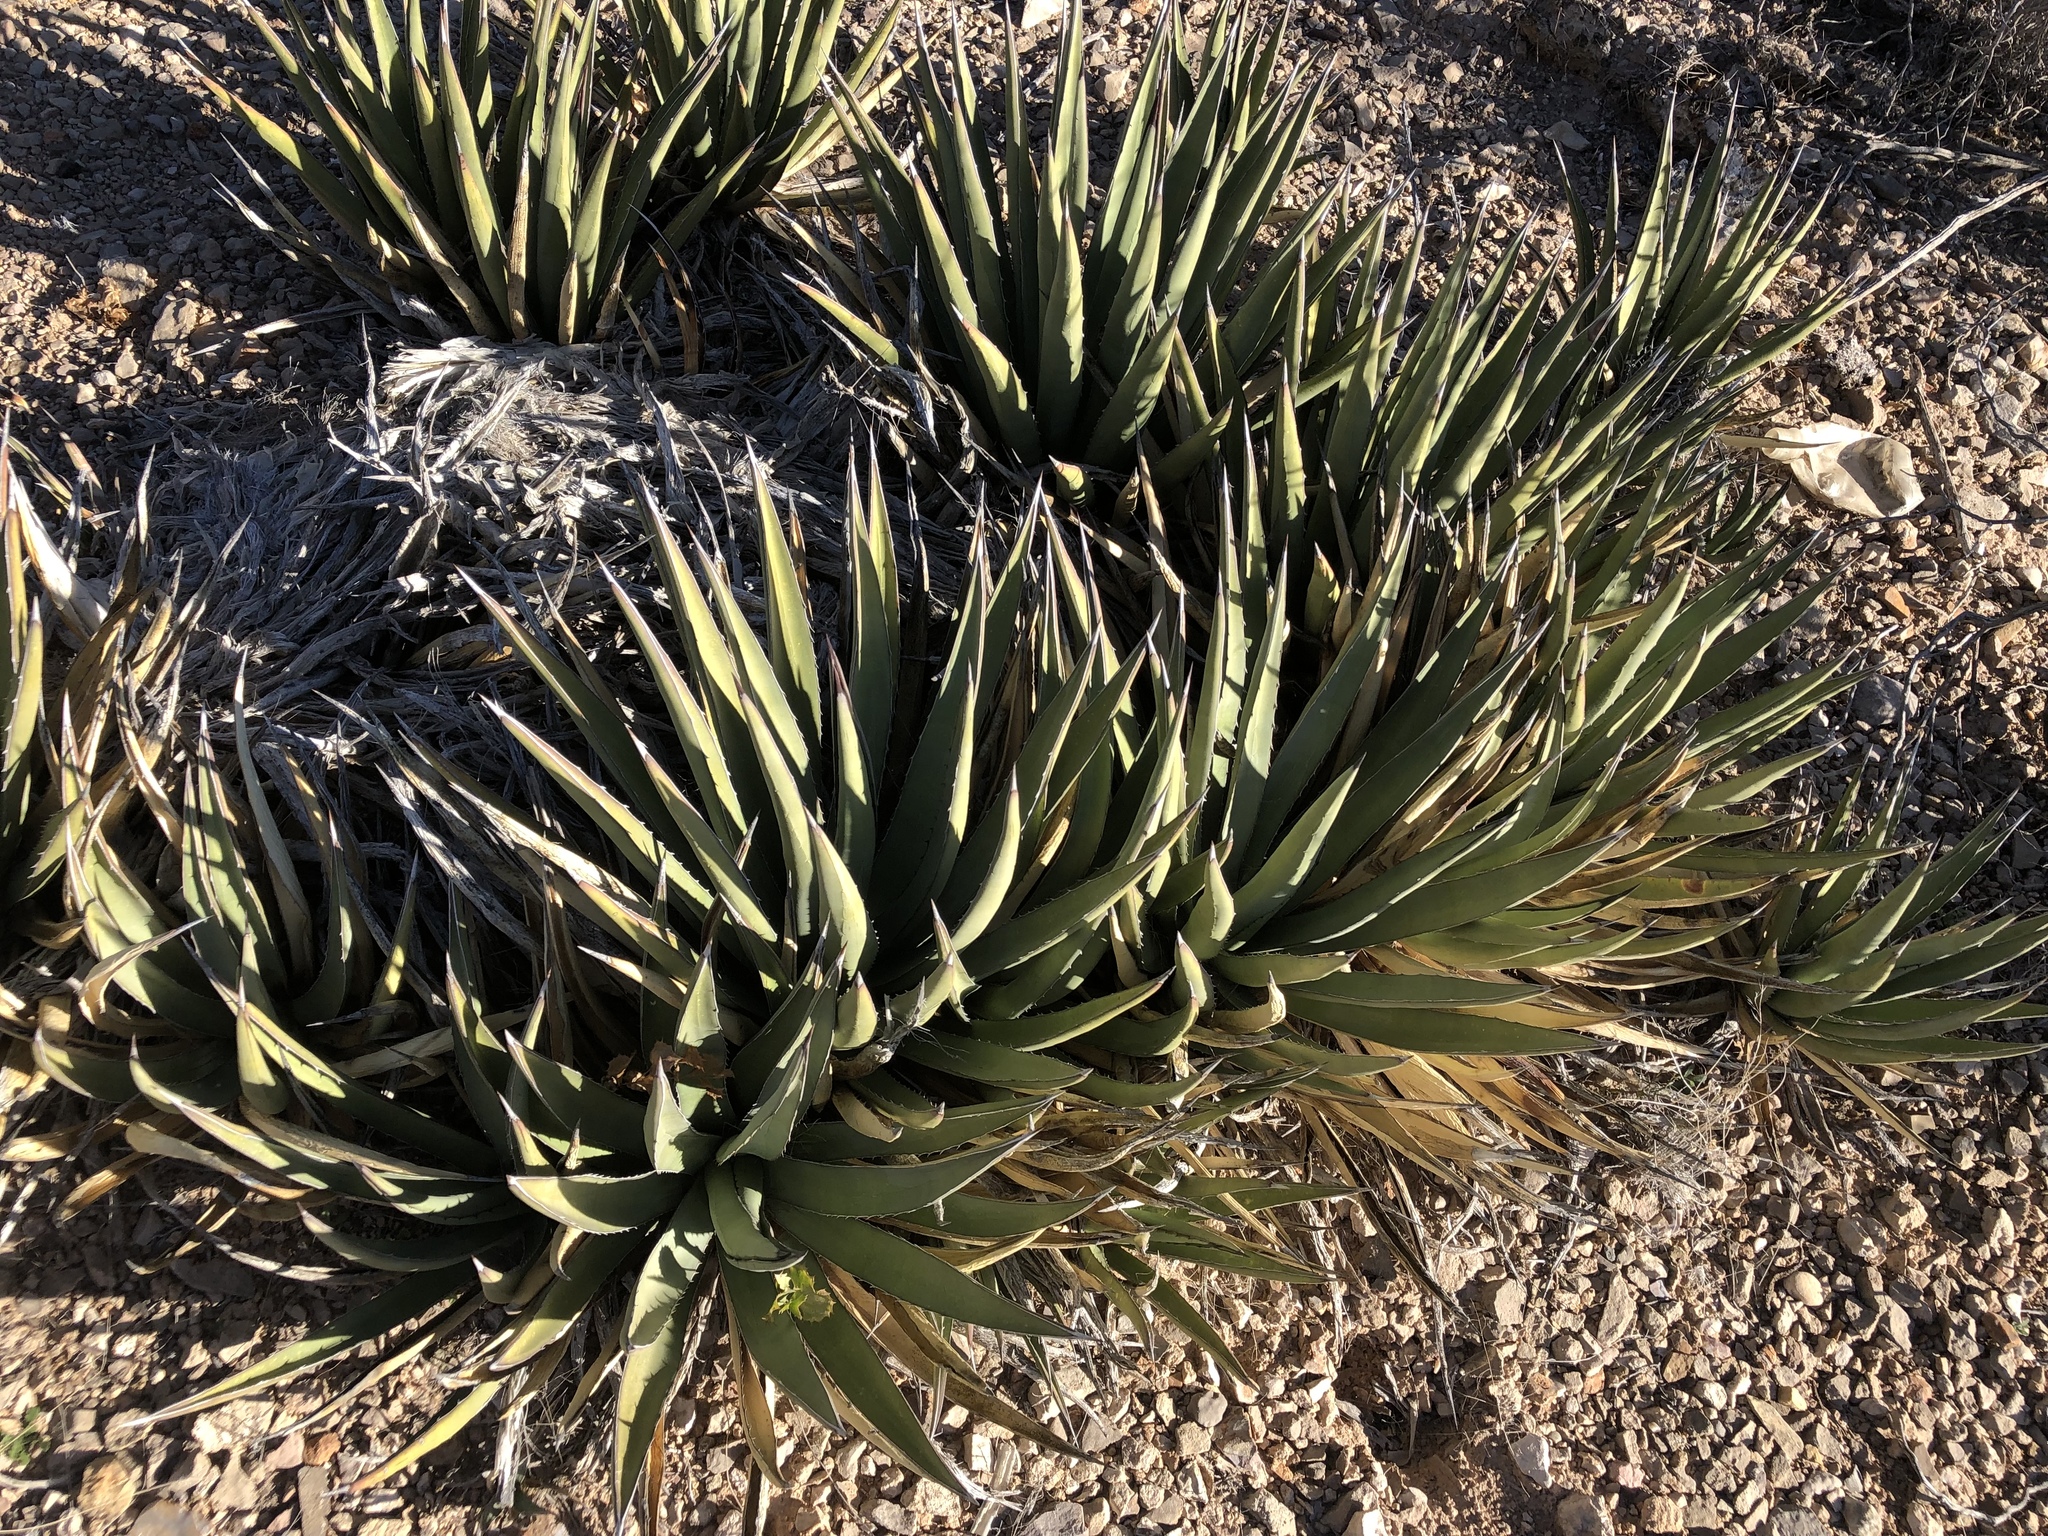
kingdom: Plantae
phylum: Tracheophyta
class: Liliopsida
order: Asparagales
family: Asparagaceae
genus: Agave
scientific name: Agave lechuguilla
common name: Lecheguilla agave
